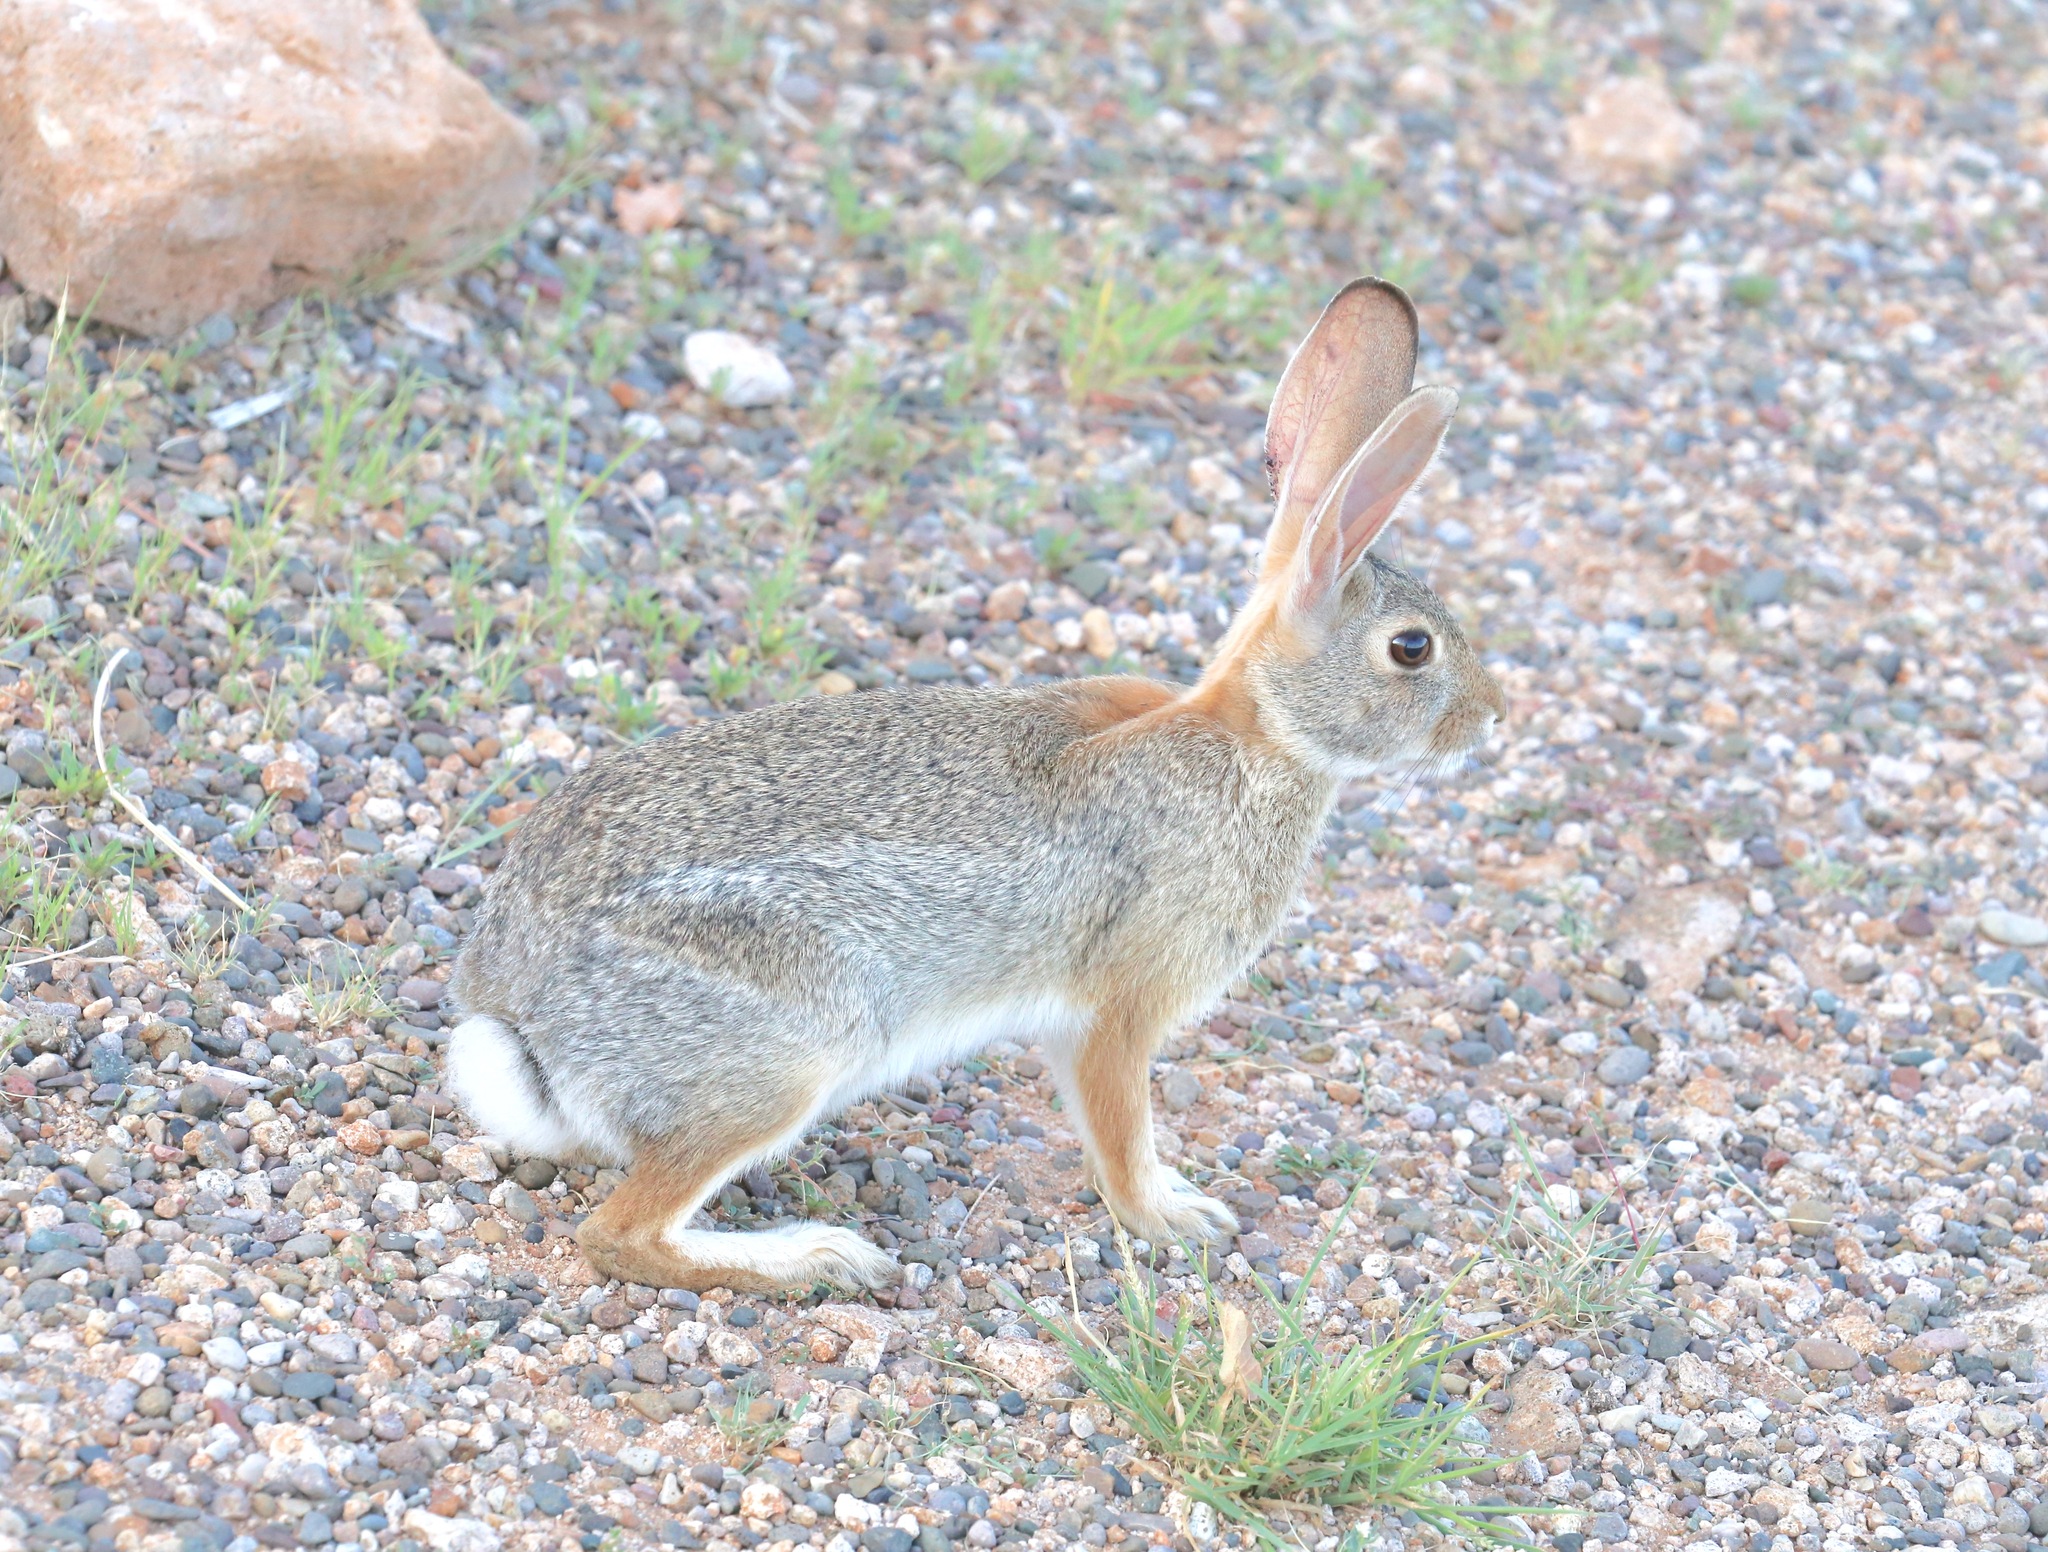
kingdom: Animalia
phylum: Chordata
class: Mammalia
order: Lagomorpha
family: Leporidae
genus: Sylvilagus
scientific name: Sylvilagus audubonii
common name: Desert cottontail
